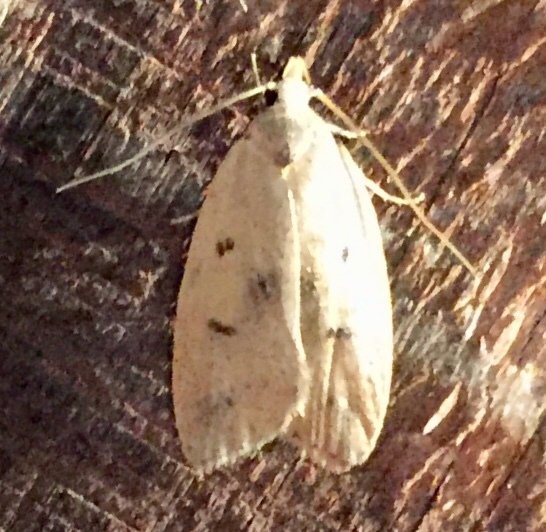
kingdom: Animalia
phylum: Arthropoda
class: Insecta
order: Lepidoptera
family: Peleopodidae
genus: Machimia
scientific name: Machimia tentoriferella
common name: Gold-striped leaftier moth
